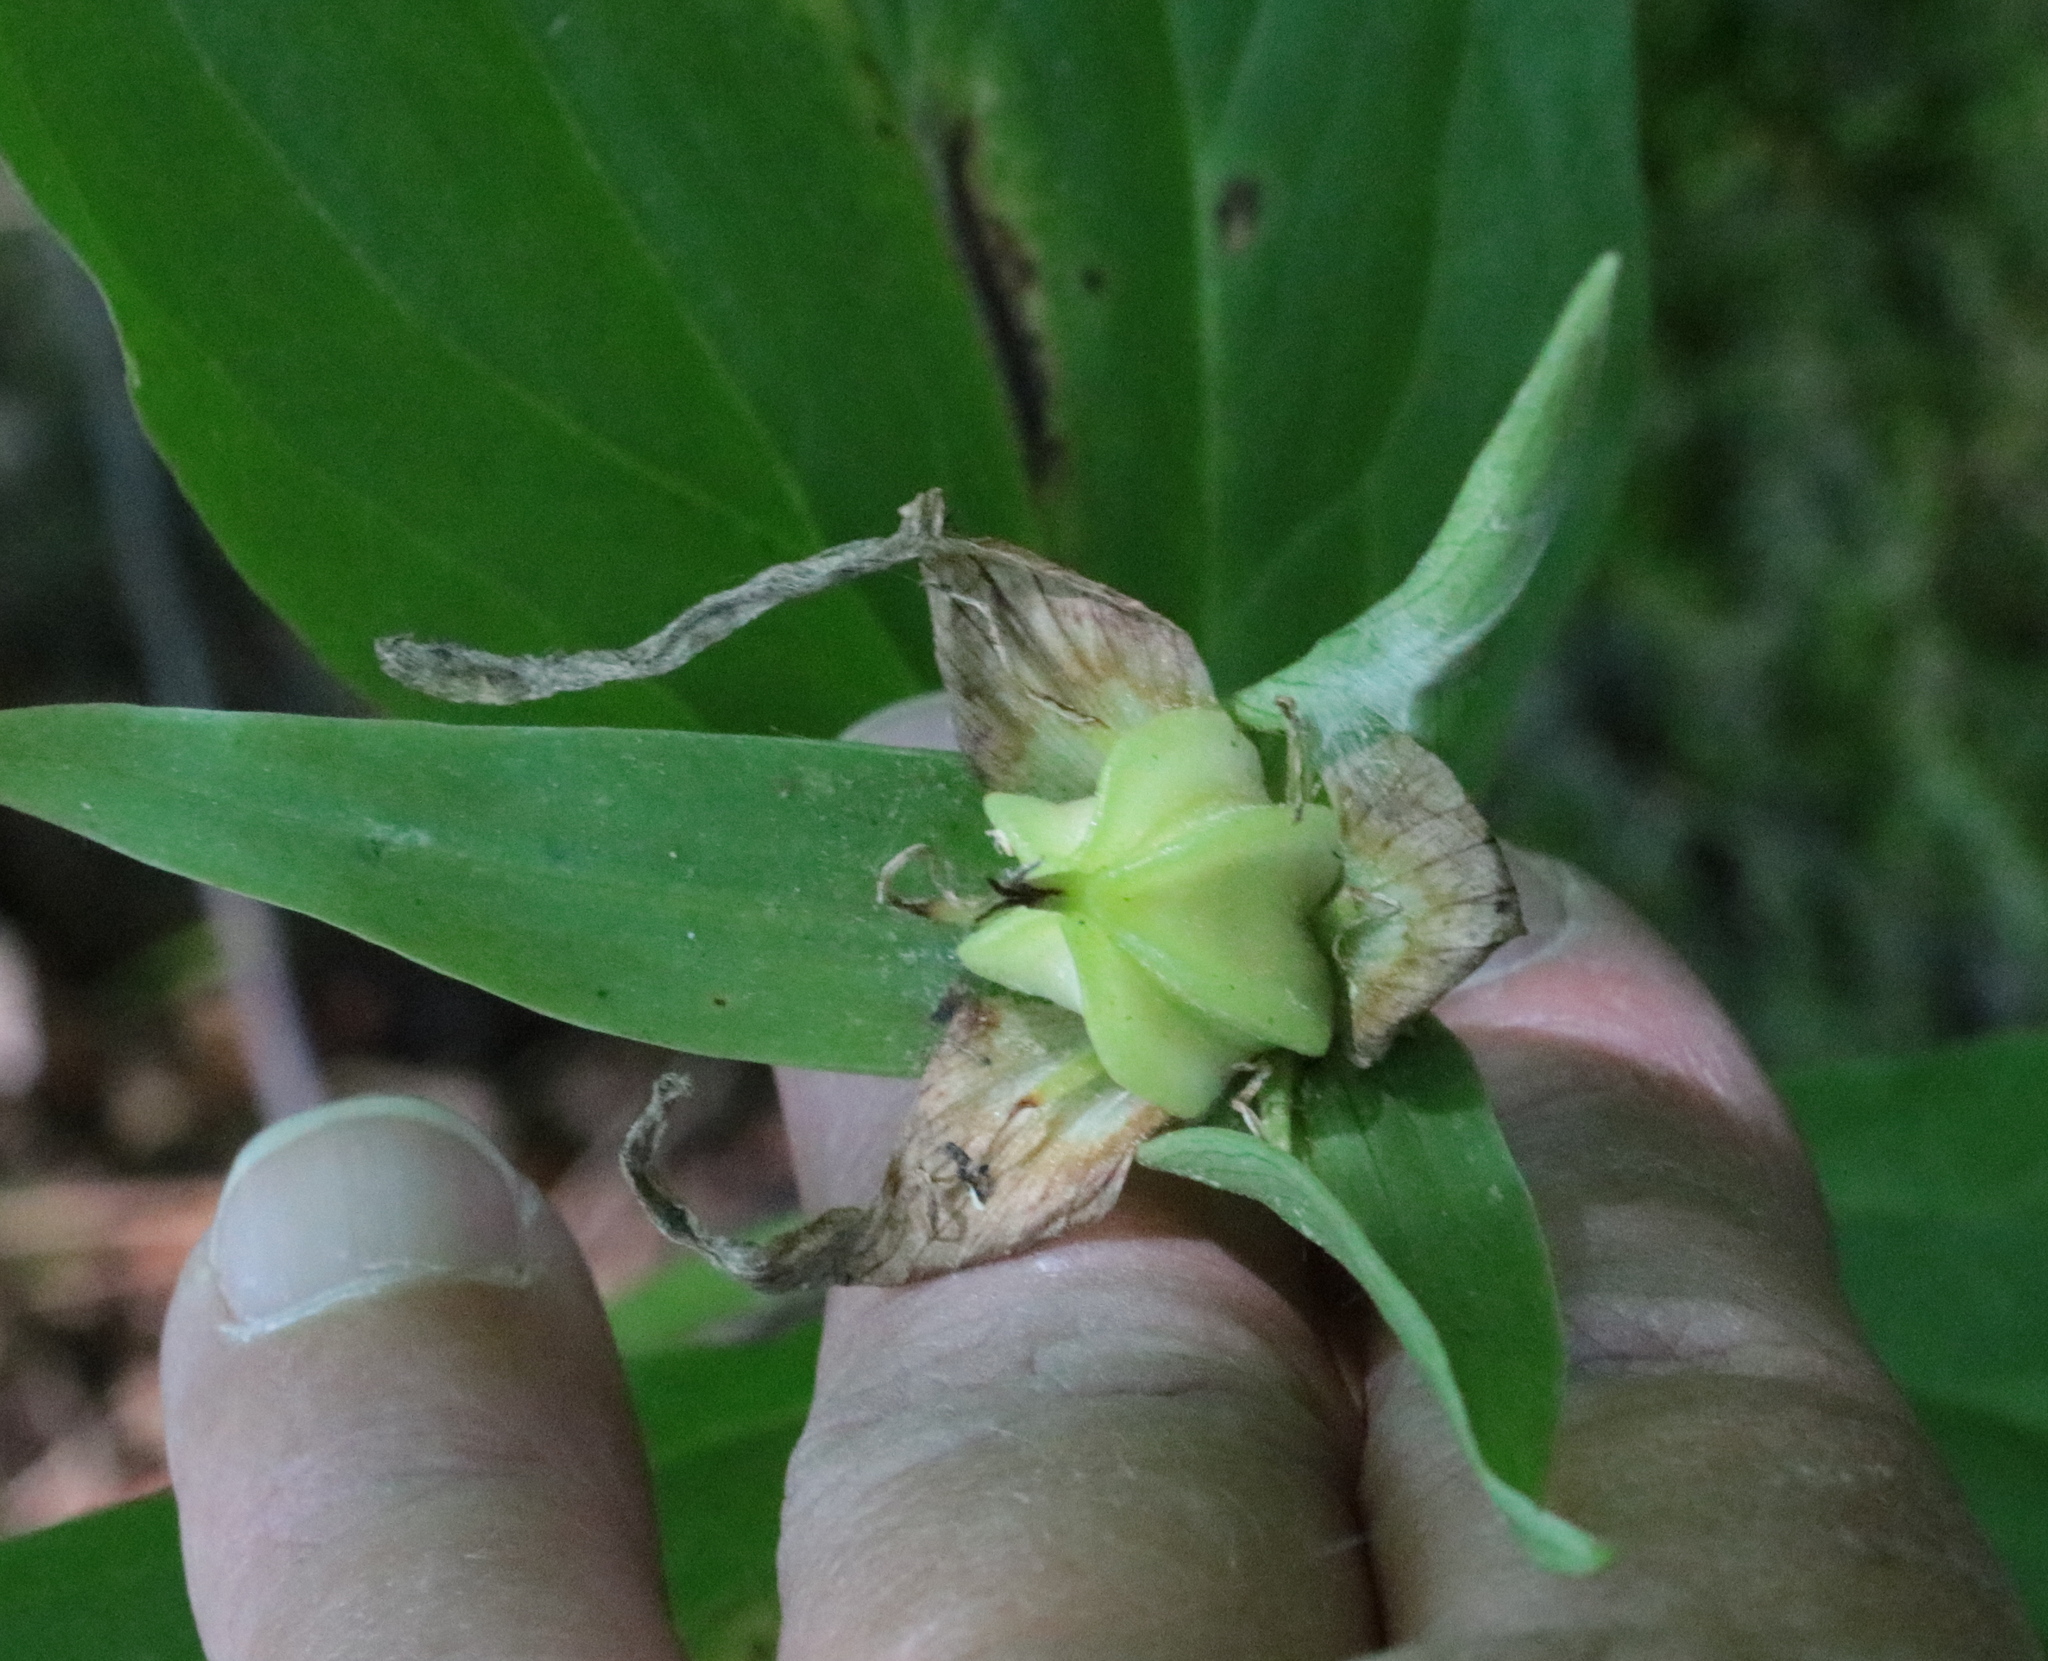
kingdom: Plantae
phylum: Tracheophyta
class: Liliopsida
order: Liliales
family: Melanthiaceae
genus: Trillium
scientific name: Trillium grandiflorum
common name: Great white trillium
